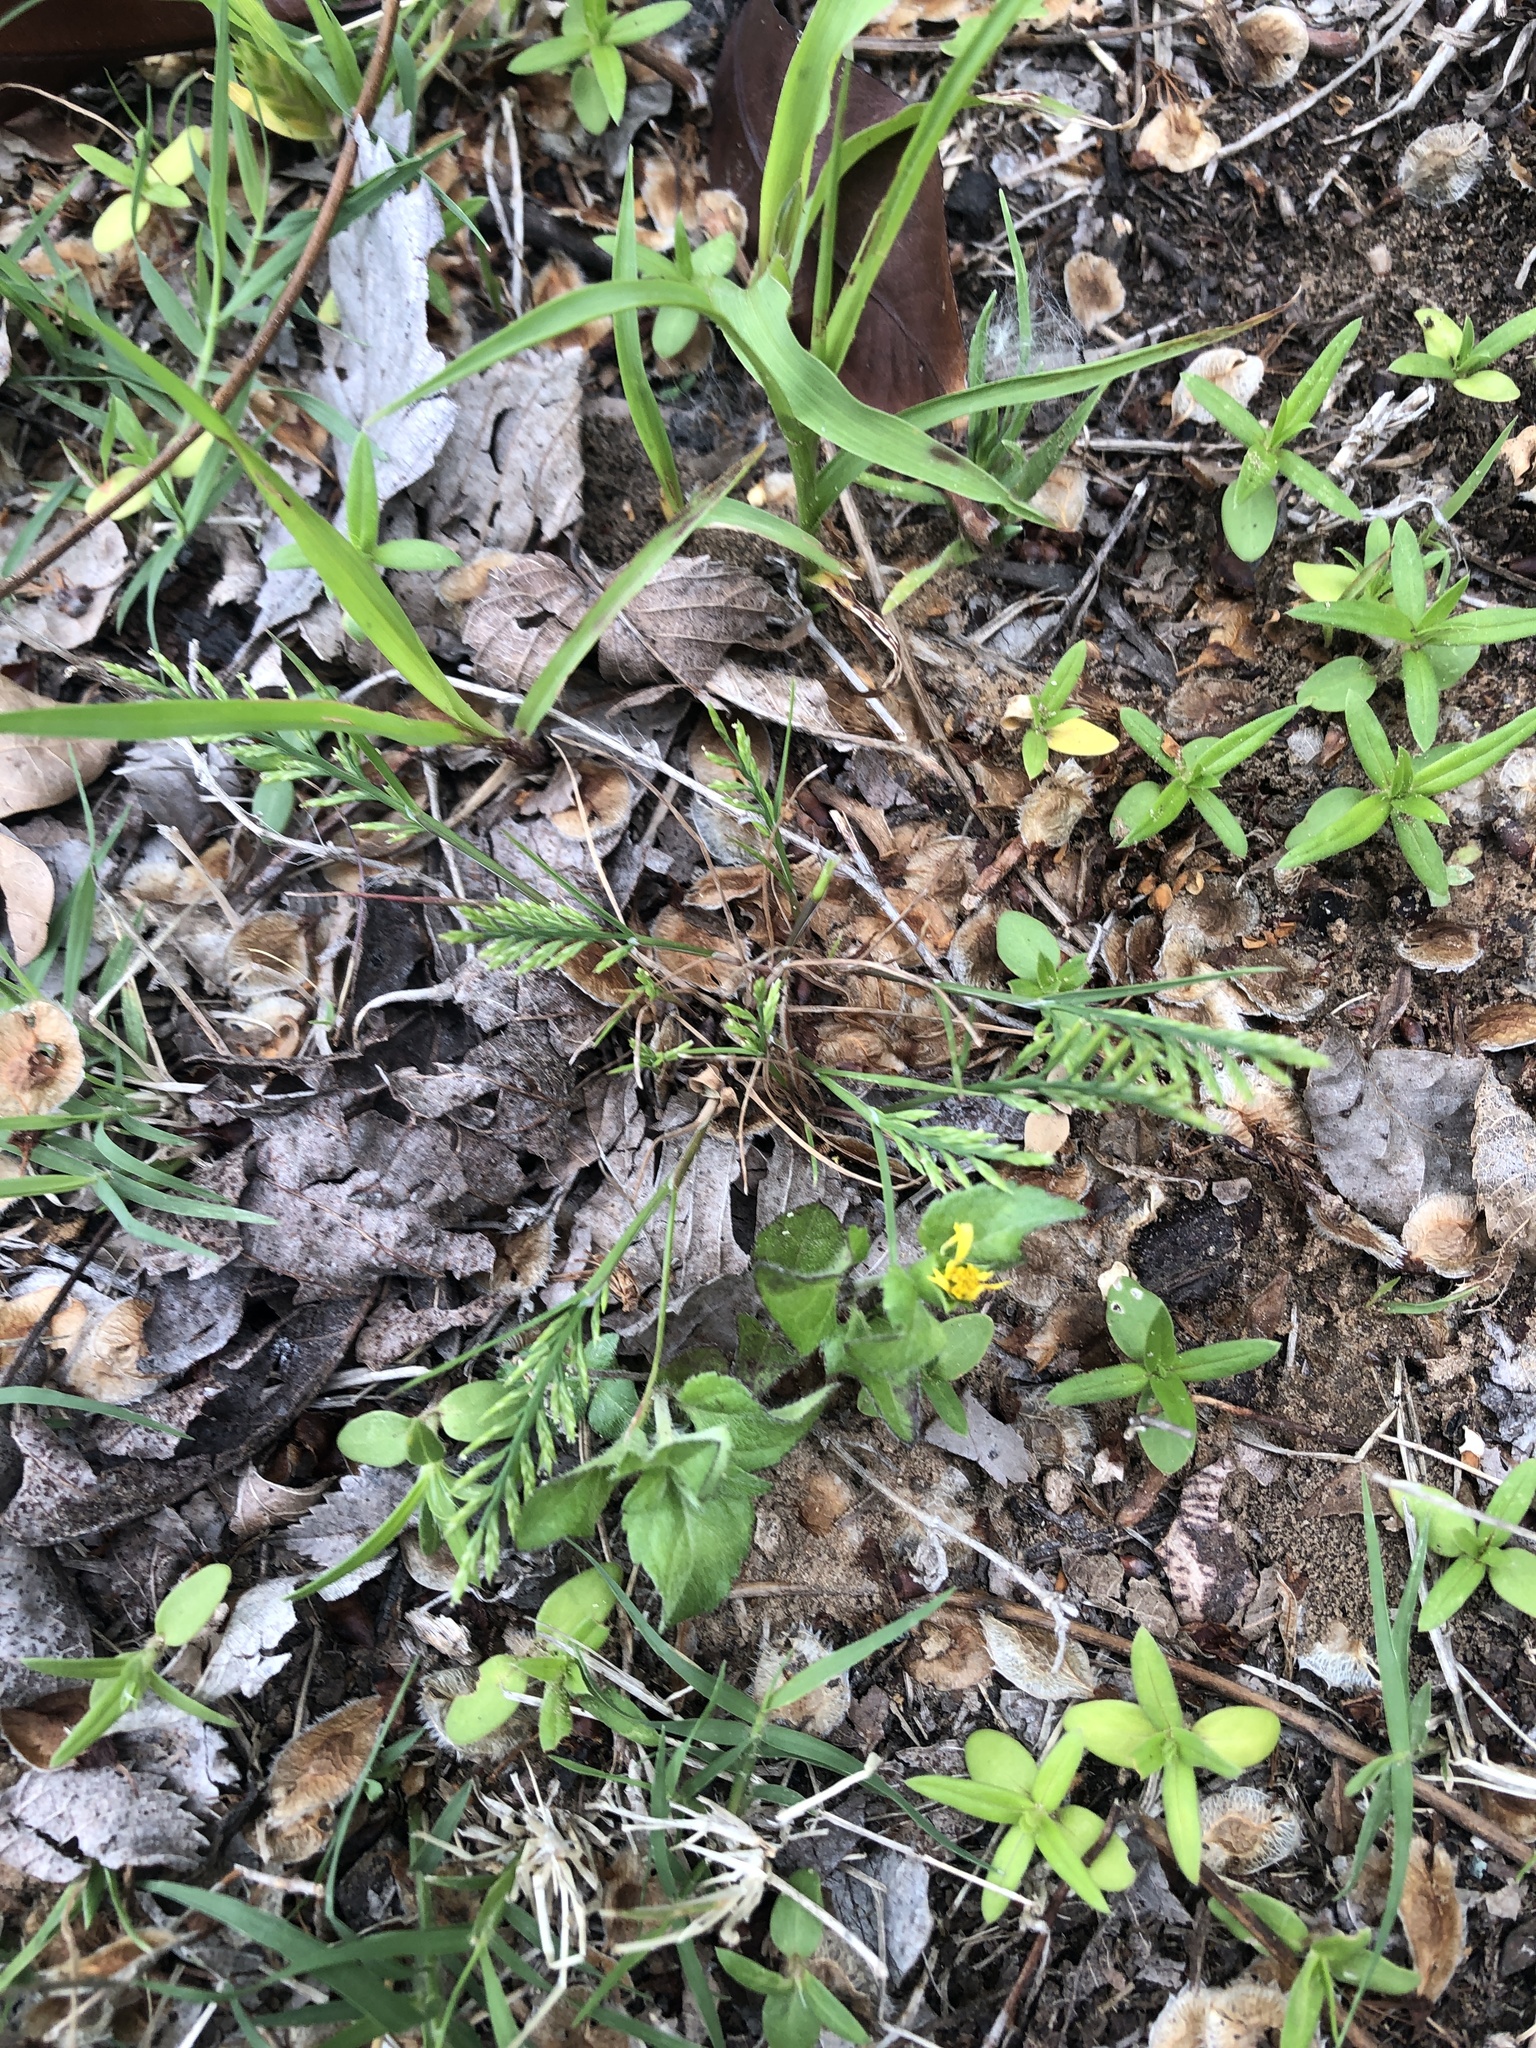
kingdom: Plantae
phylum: Tracheophyta
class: Liliopsida
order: Poales
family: Poaceae
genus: Catapodium
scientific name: Catapodium rigidum
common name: Fern-grass
